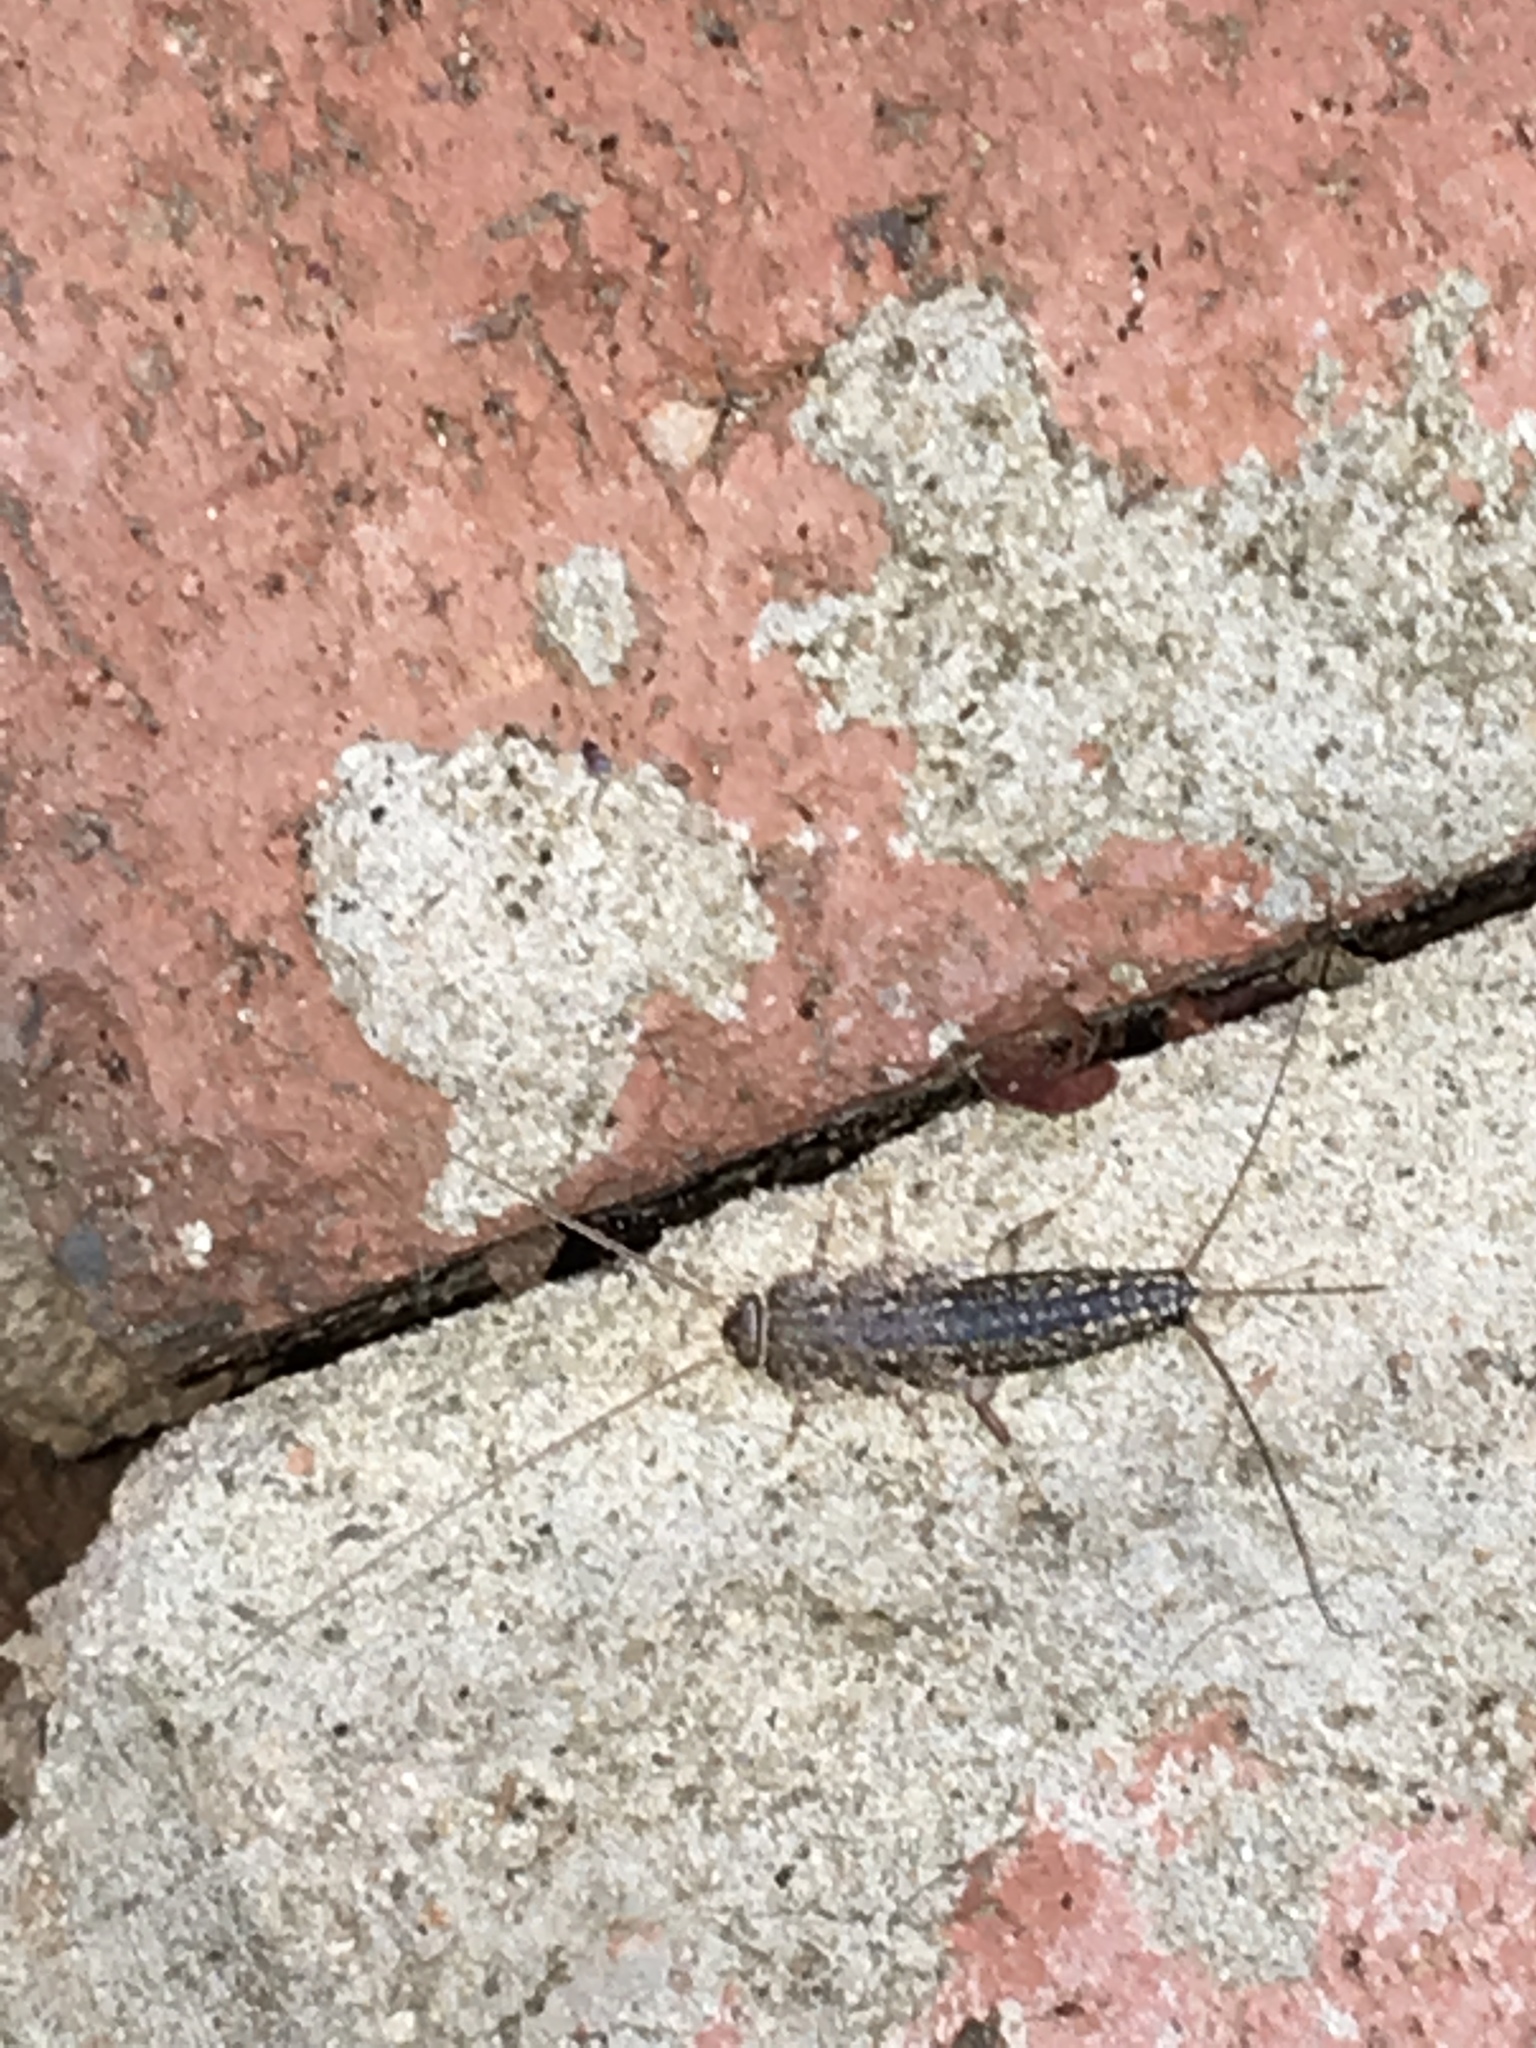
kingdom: Animalia
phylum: Arthropoda
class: Insecta
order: Zygentoma
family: Lepismatidae
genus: Ctenolepisma
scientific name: Ctenolepisma lineata
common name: Four-lined silverfish
